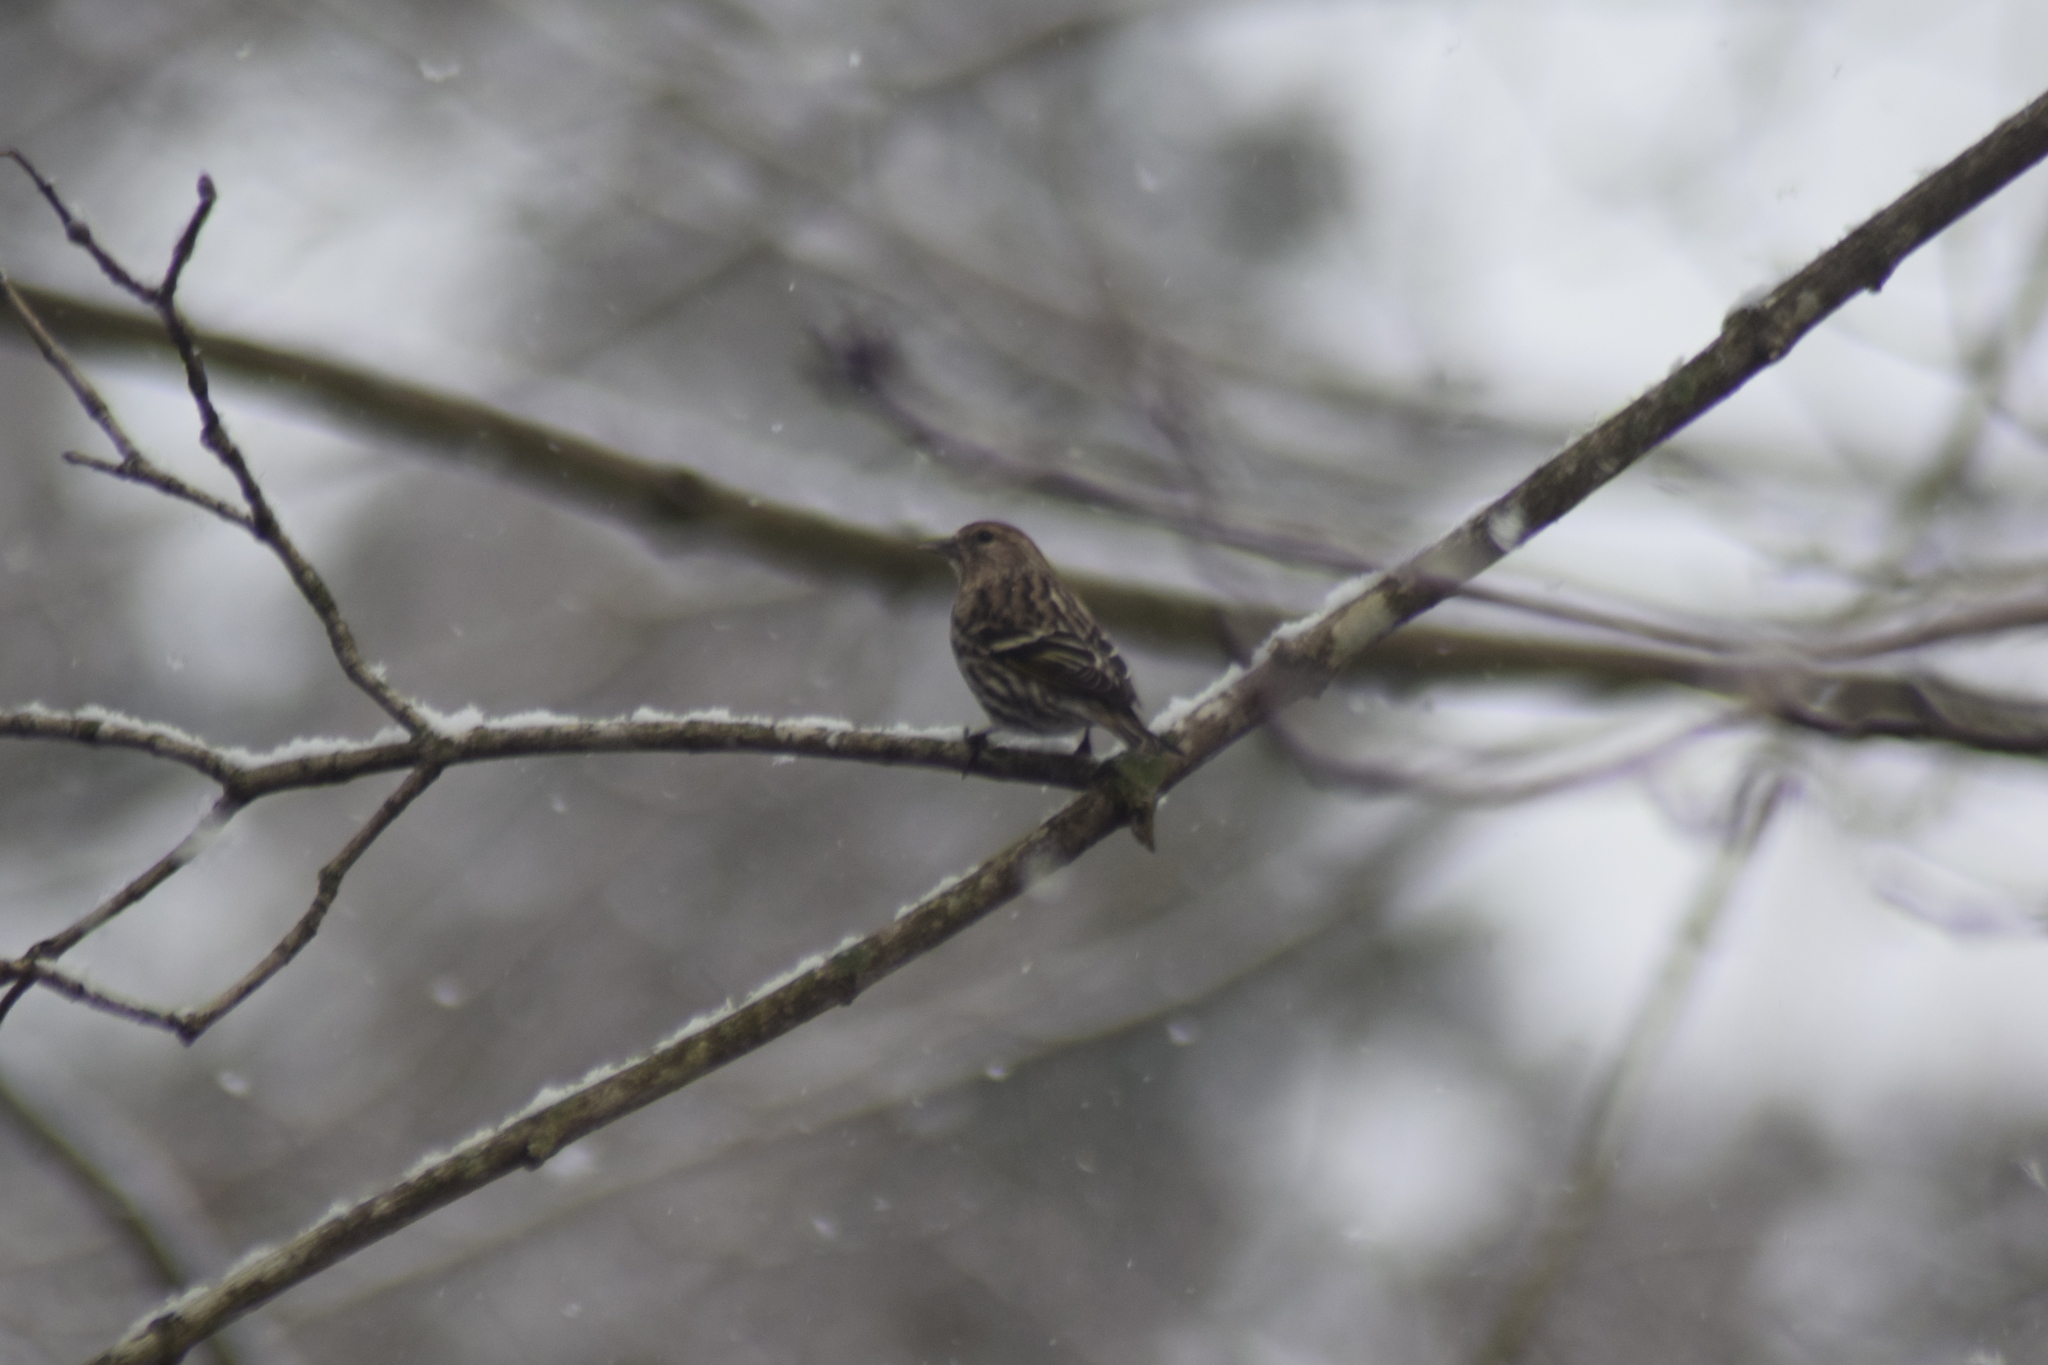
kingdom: Animalia
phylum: Chordata
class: Aves
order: Passeriformes
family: Fringillidae
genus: Spinus
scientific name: Spinus pinus
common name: Pine siskin
